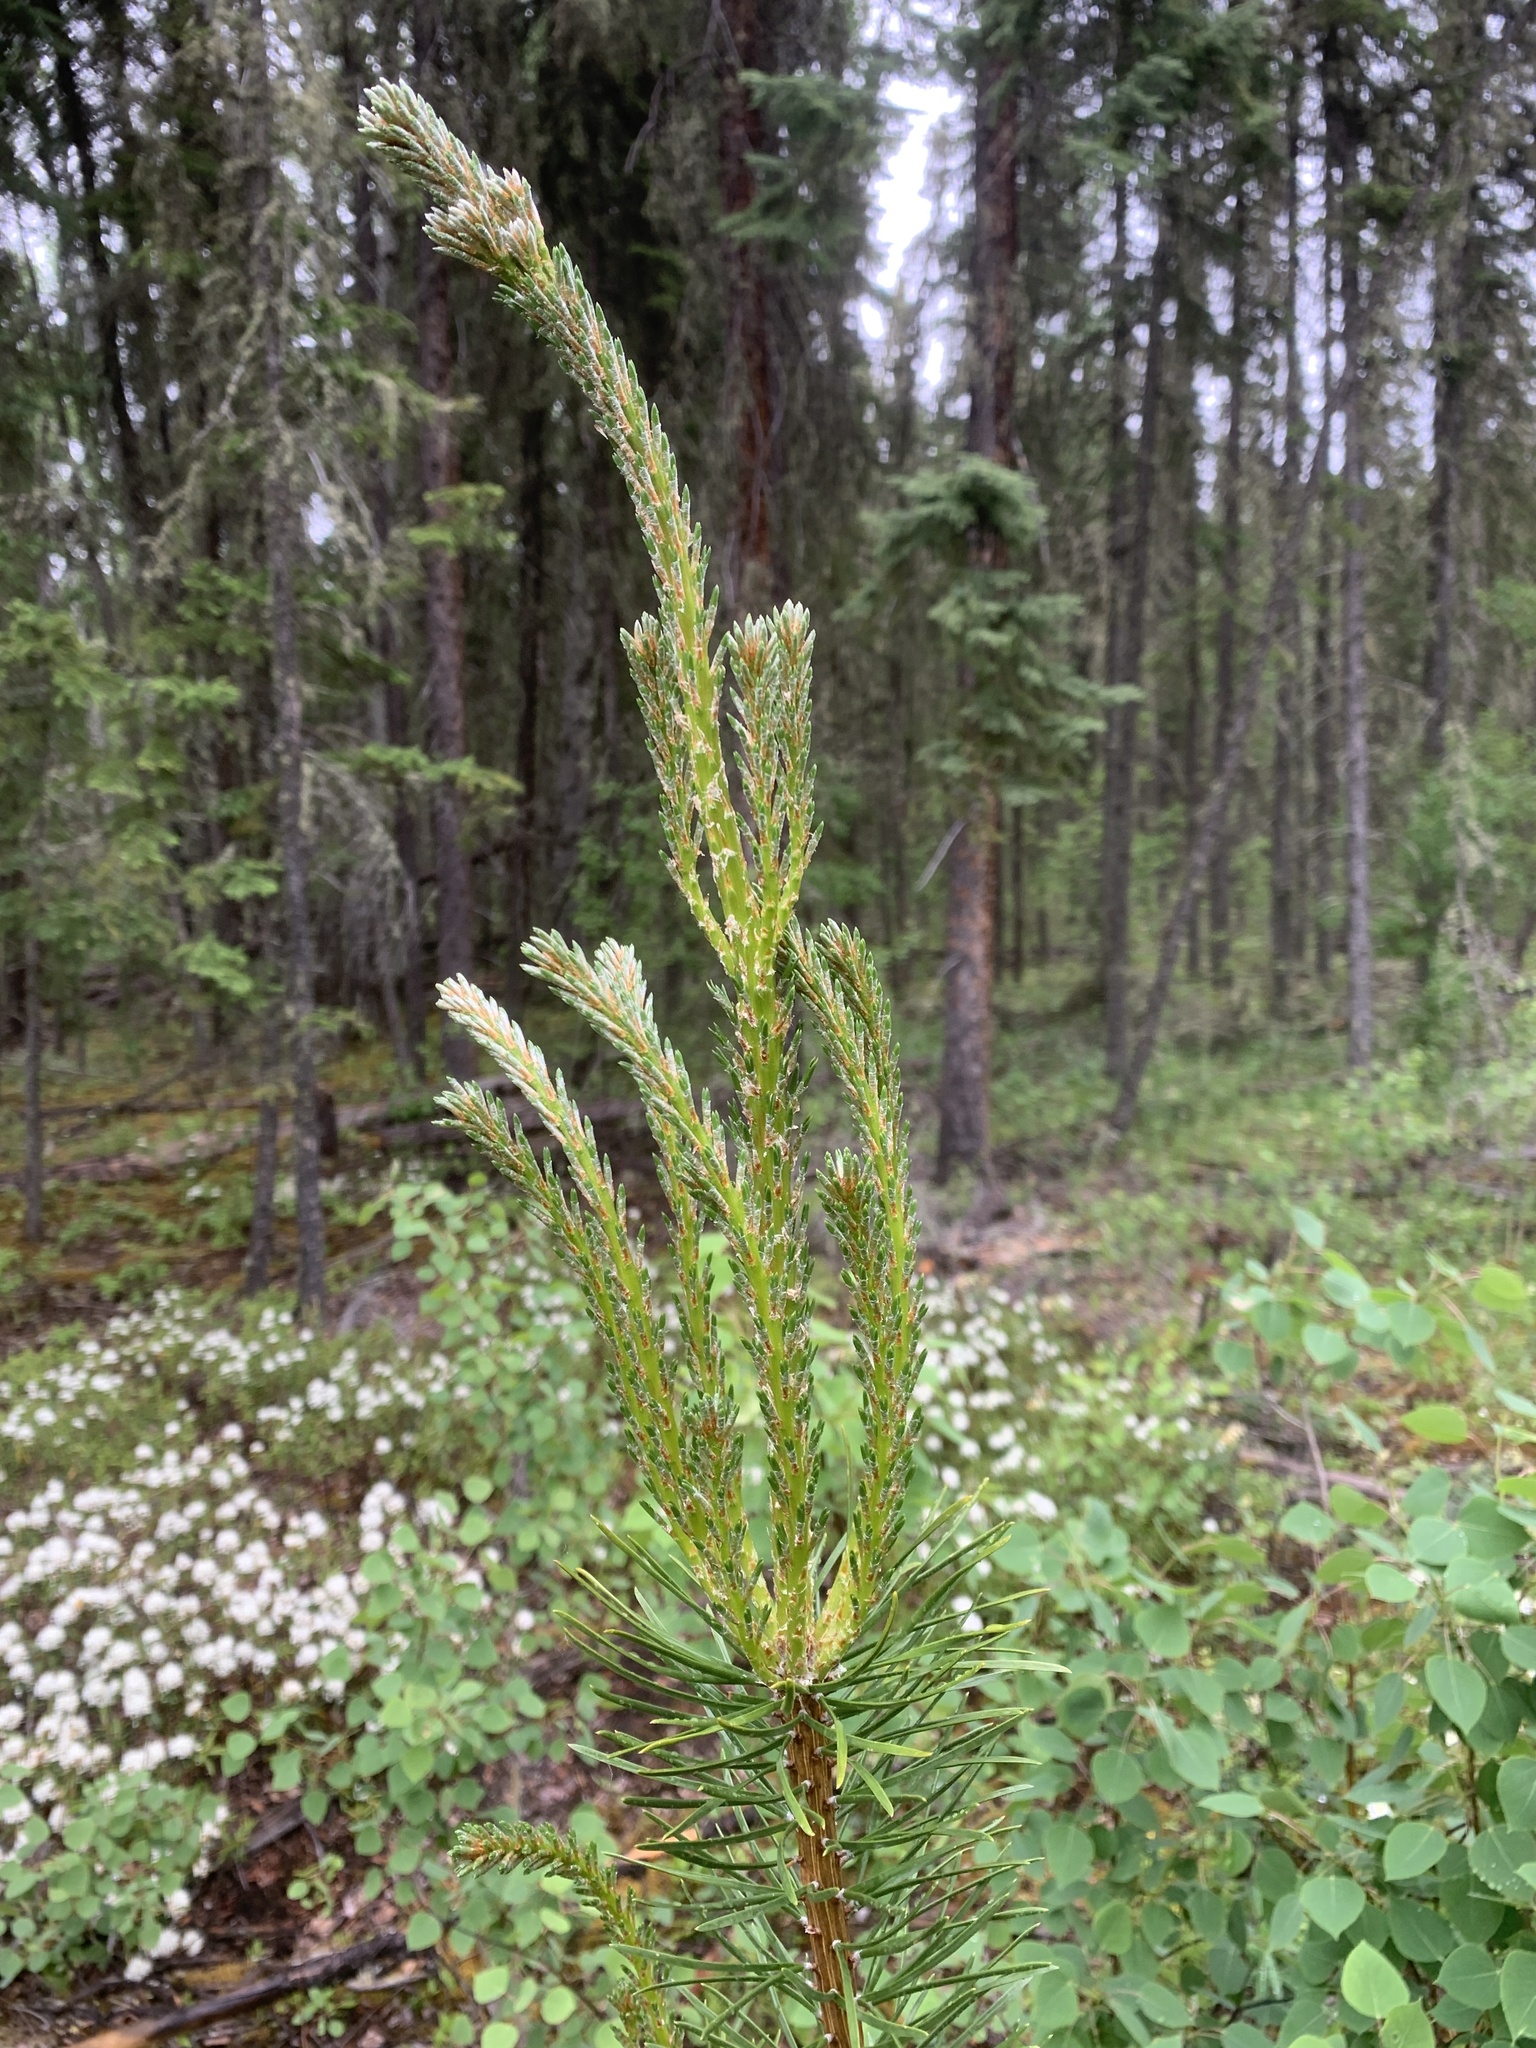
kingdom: Plantae
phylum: Tracheophyta
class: Pinopsida
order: Pinales
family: Pinaceae
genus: Pinus
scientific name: Pinus banksiana
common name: Jack pine
